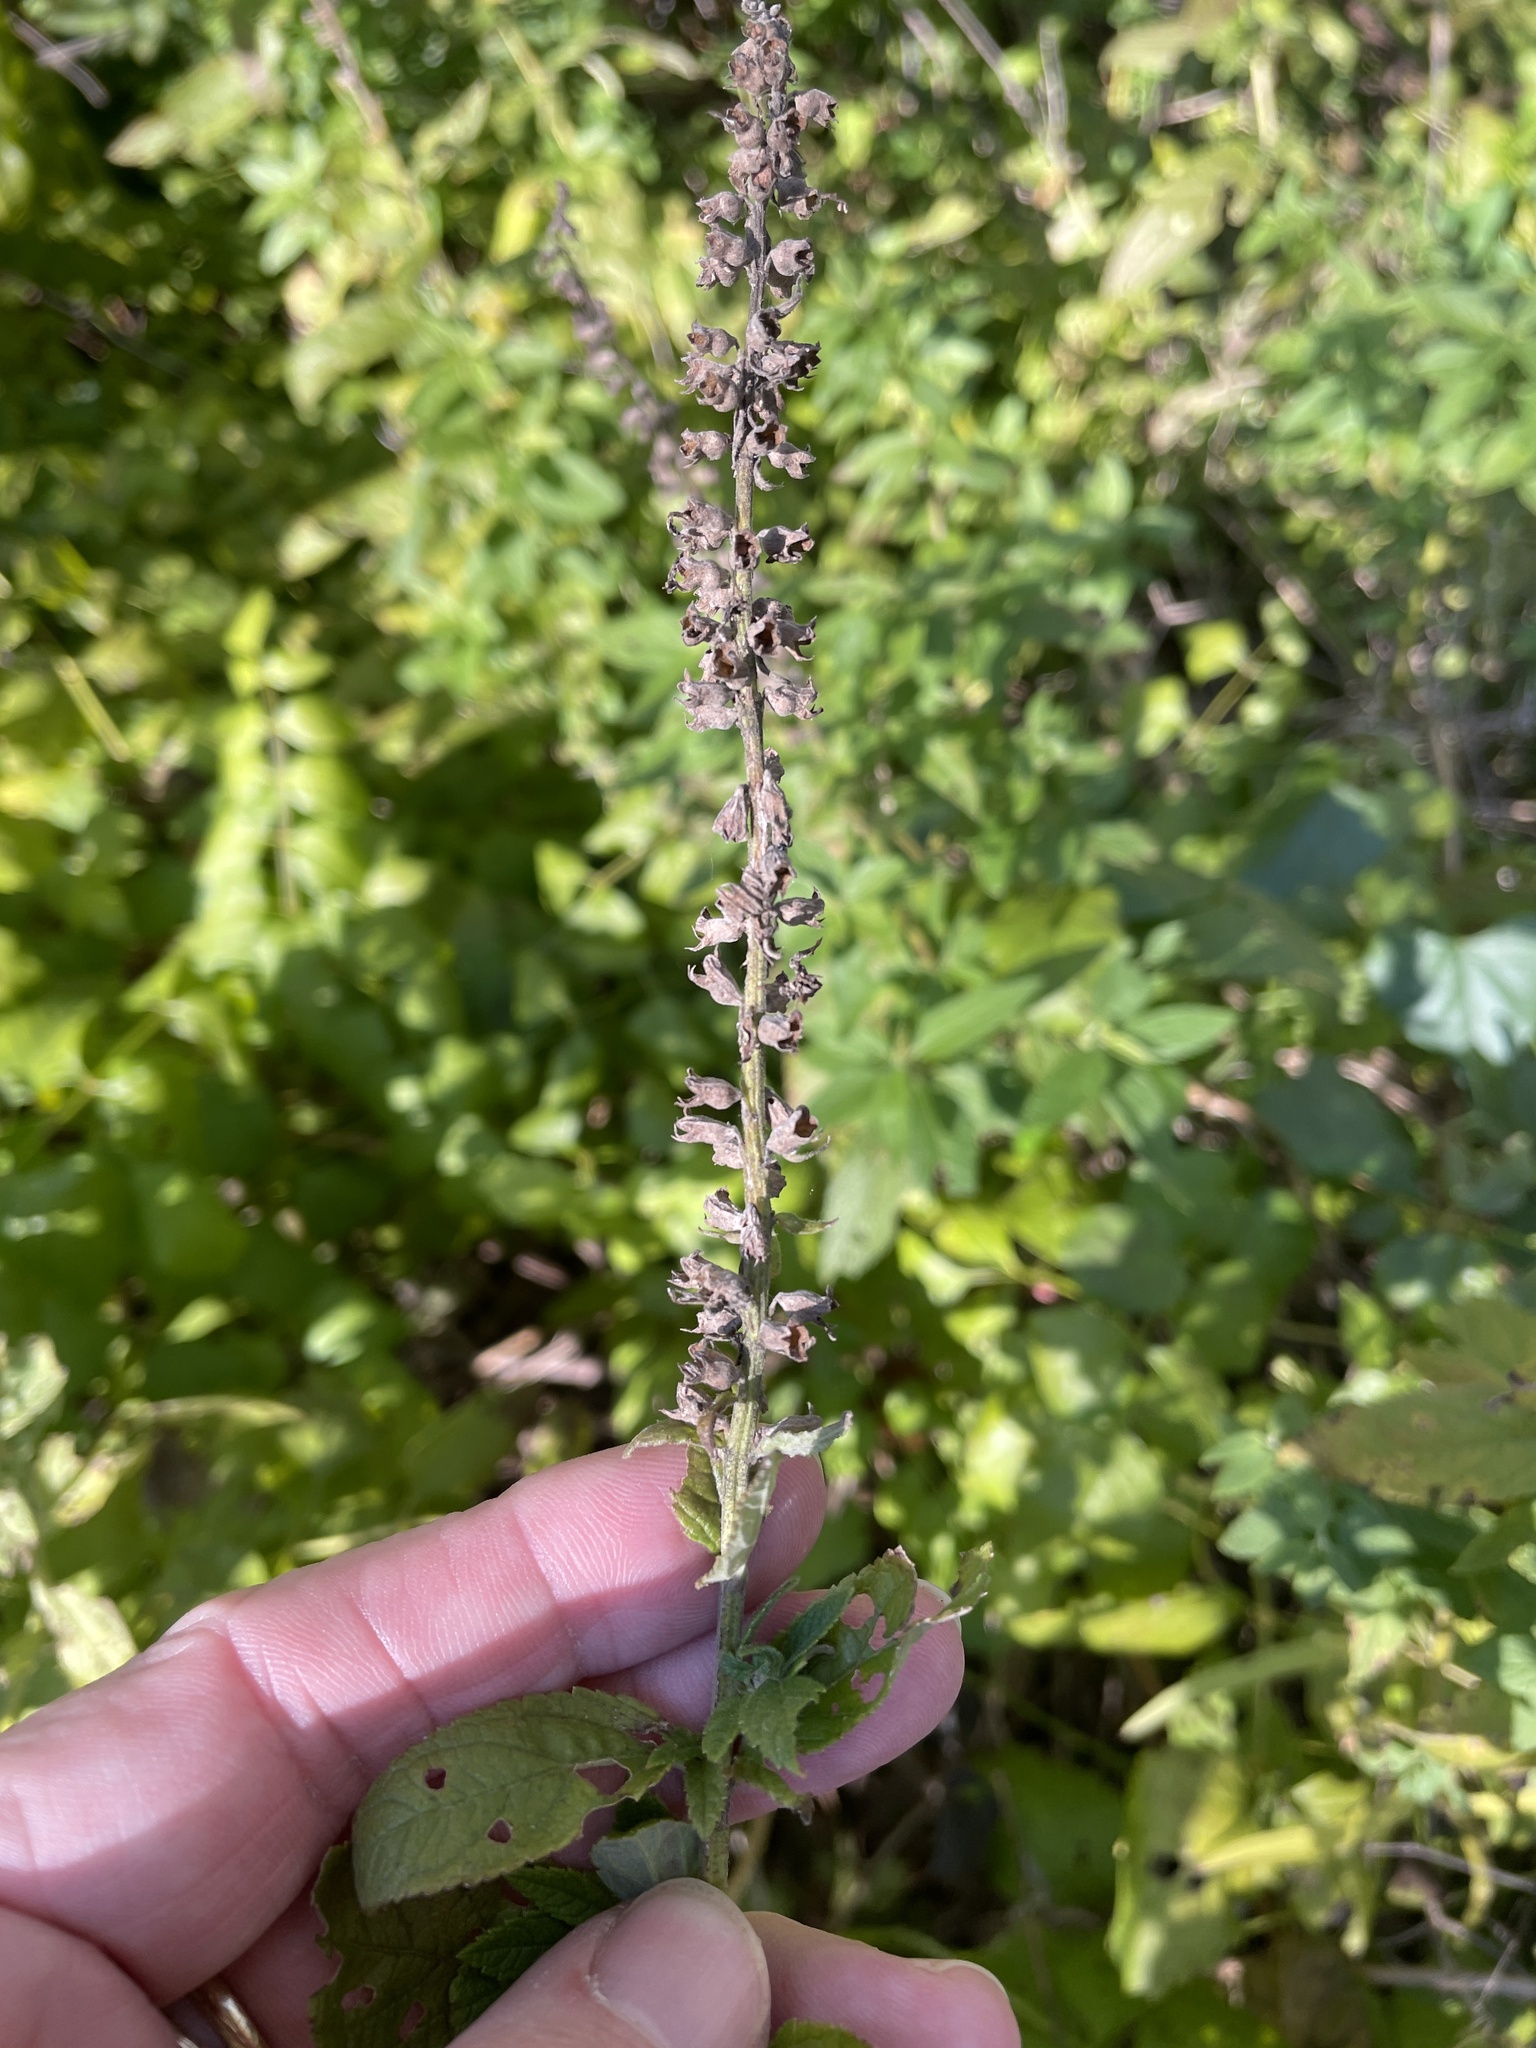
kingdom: Plantae
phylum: Tracheophyta
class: Magnoliopsida
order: Lamiales
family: Lamiaceae
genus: Teucrium
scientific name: Teucrium canadense
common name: American germander
